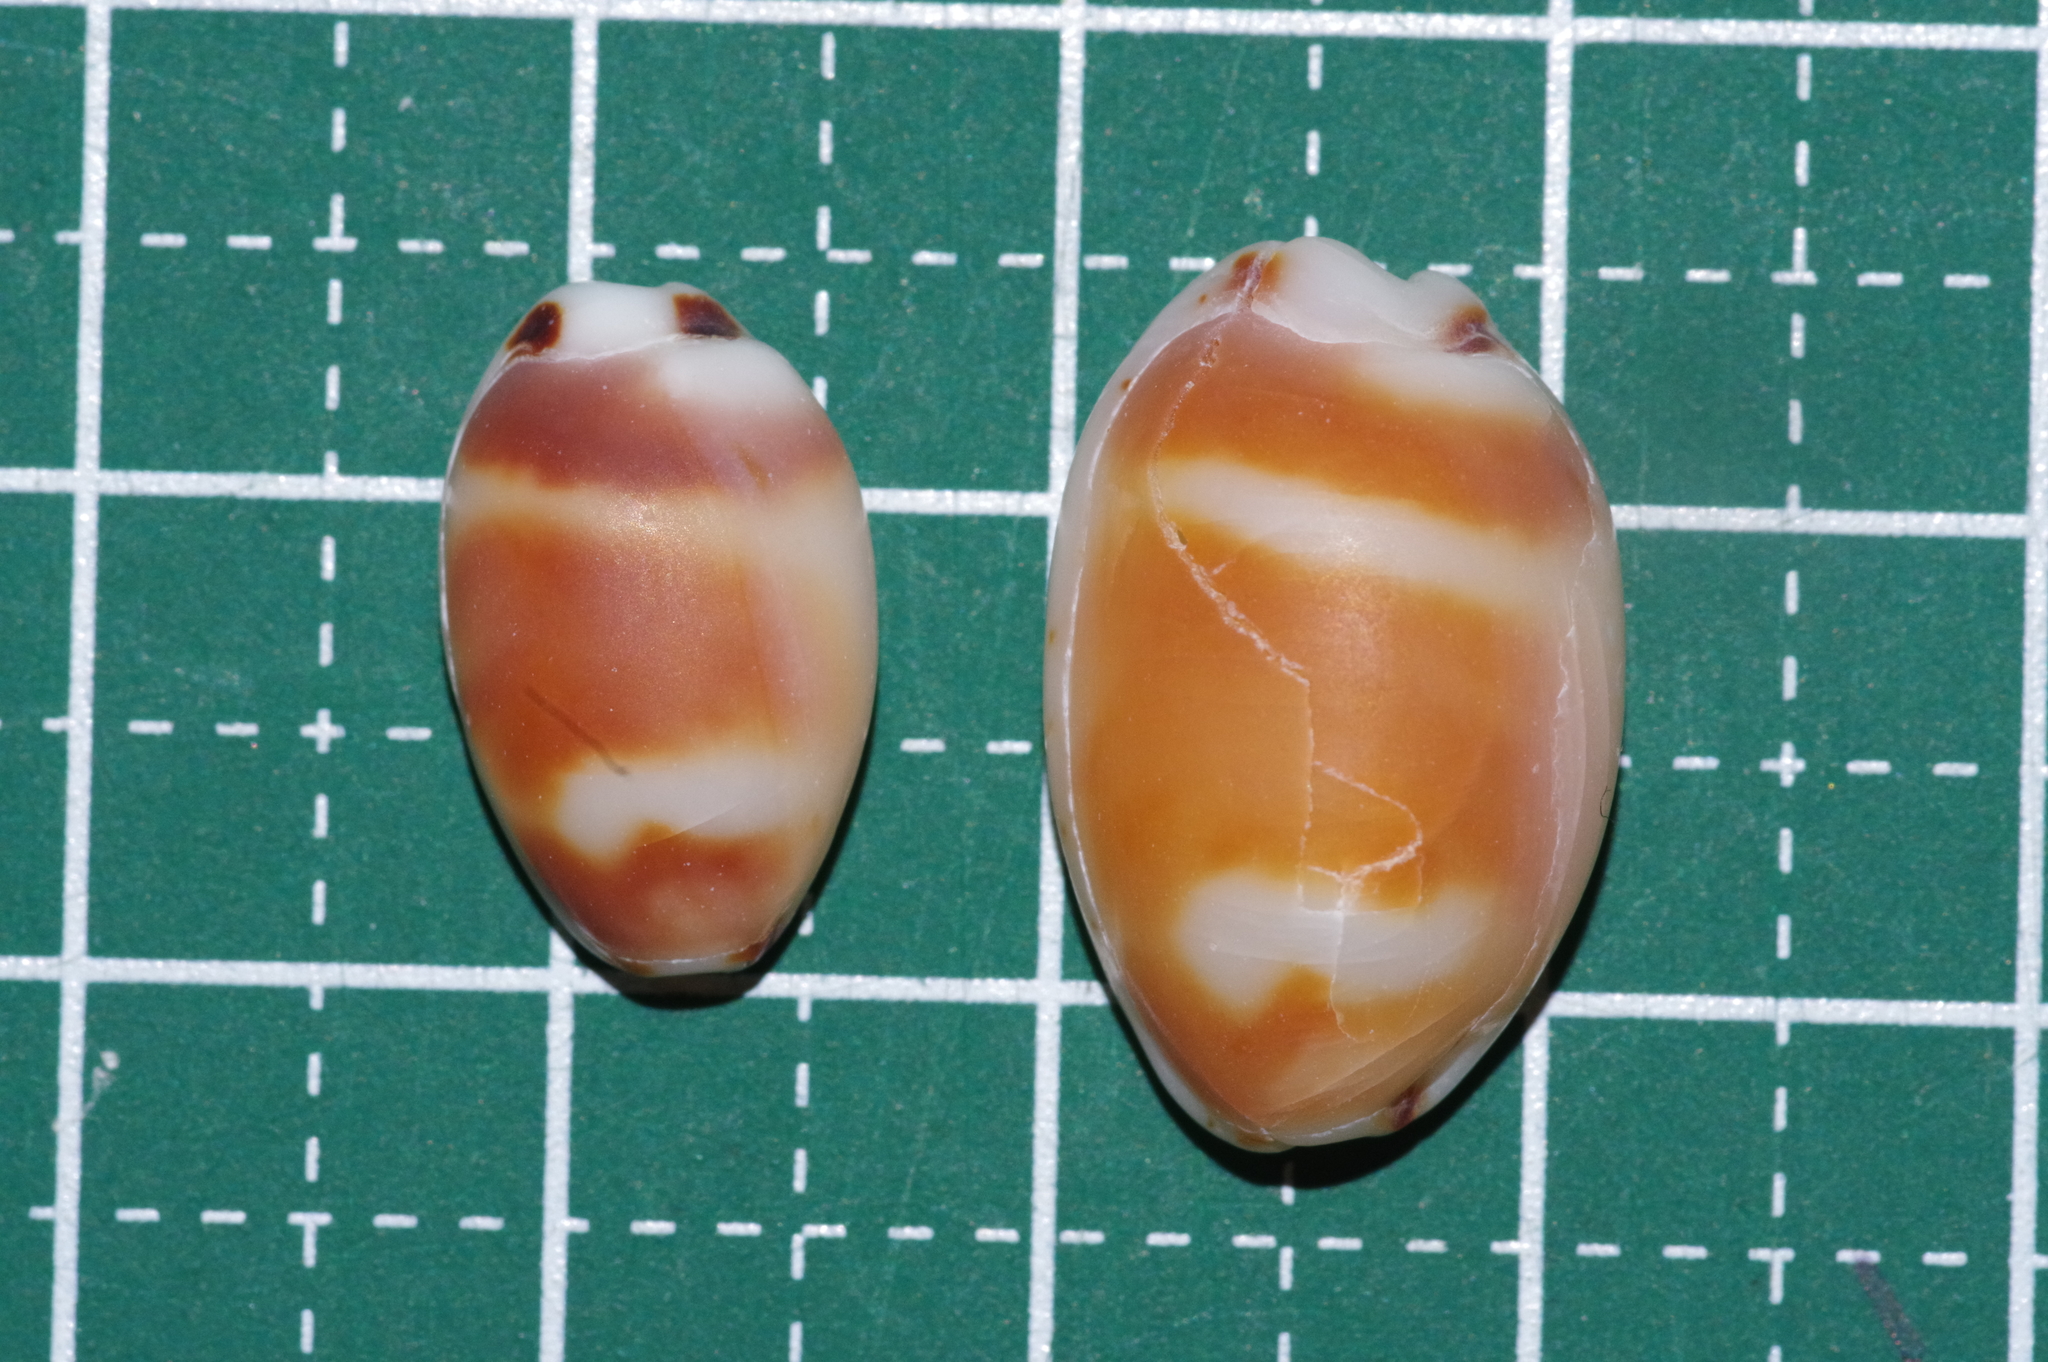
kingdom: Animalia
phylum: Mollusca
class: Gastropoda
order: Littorinimorpha
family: Cypraeidae
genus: Bistolida
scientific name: Bistolida hirundo
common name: Cowrie
